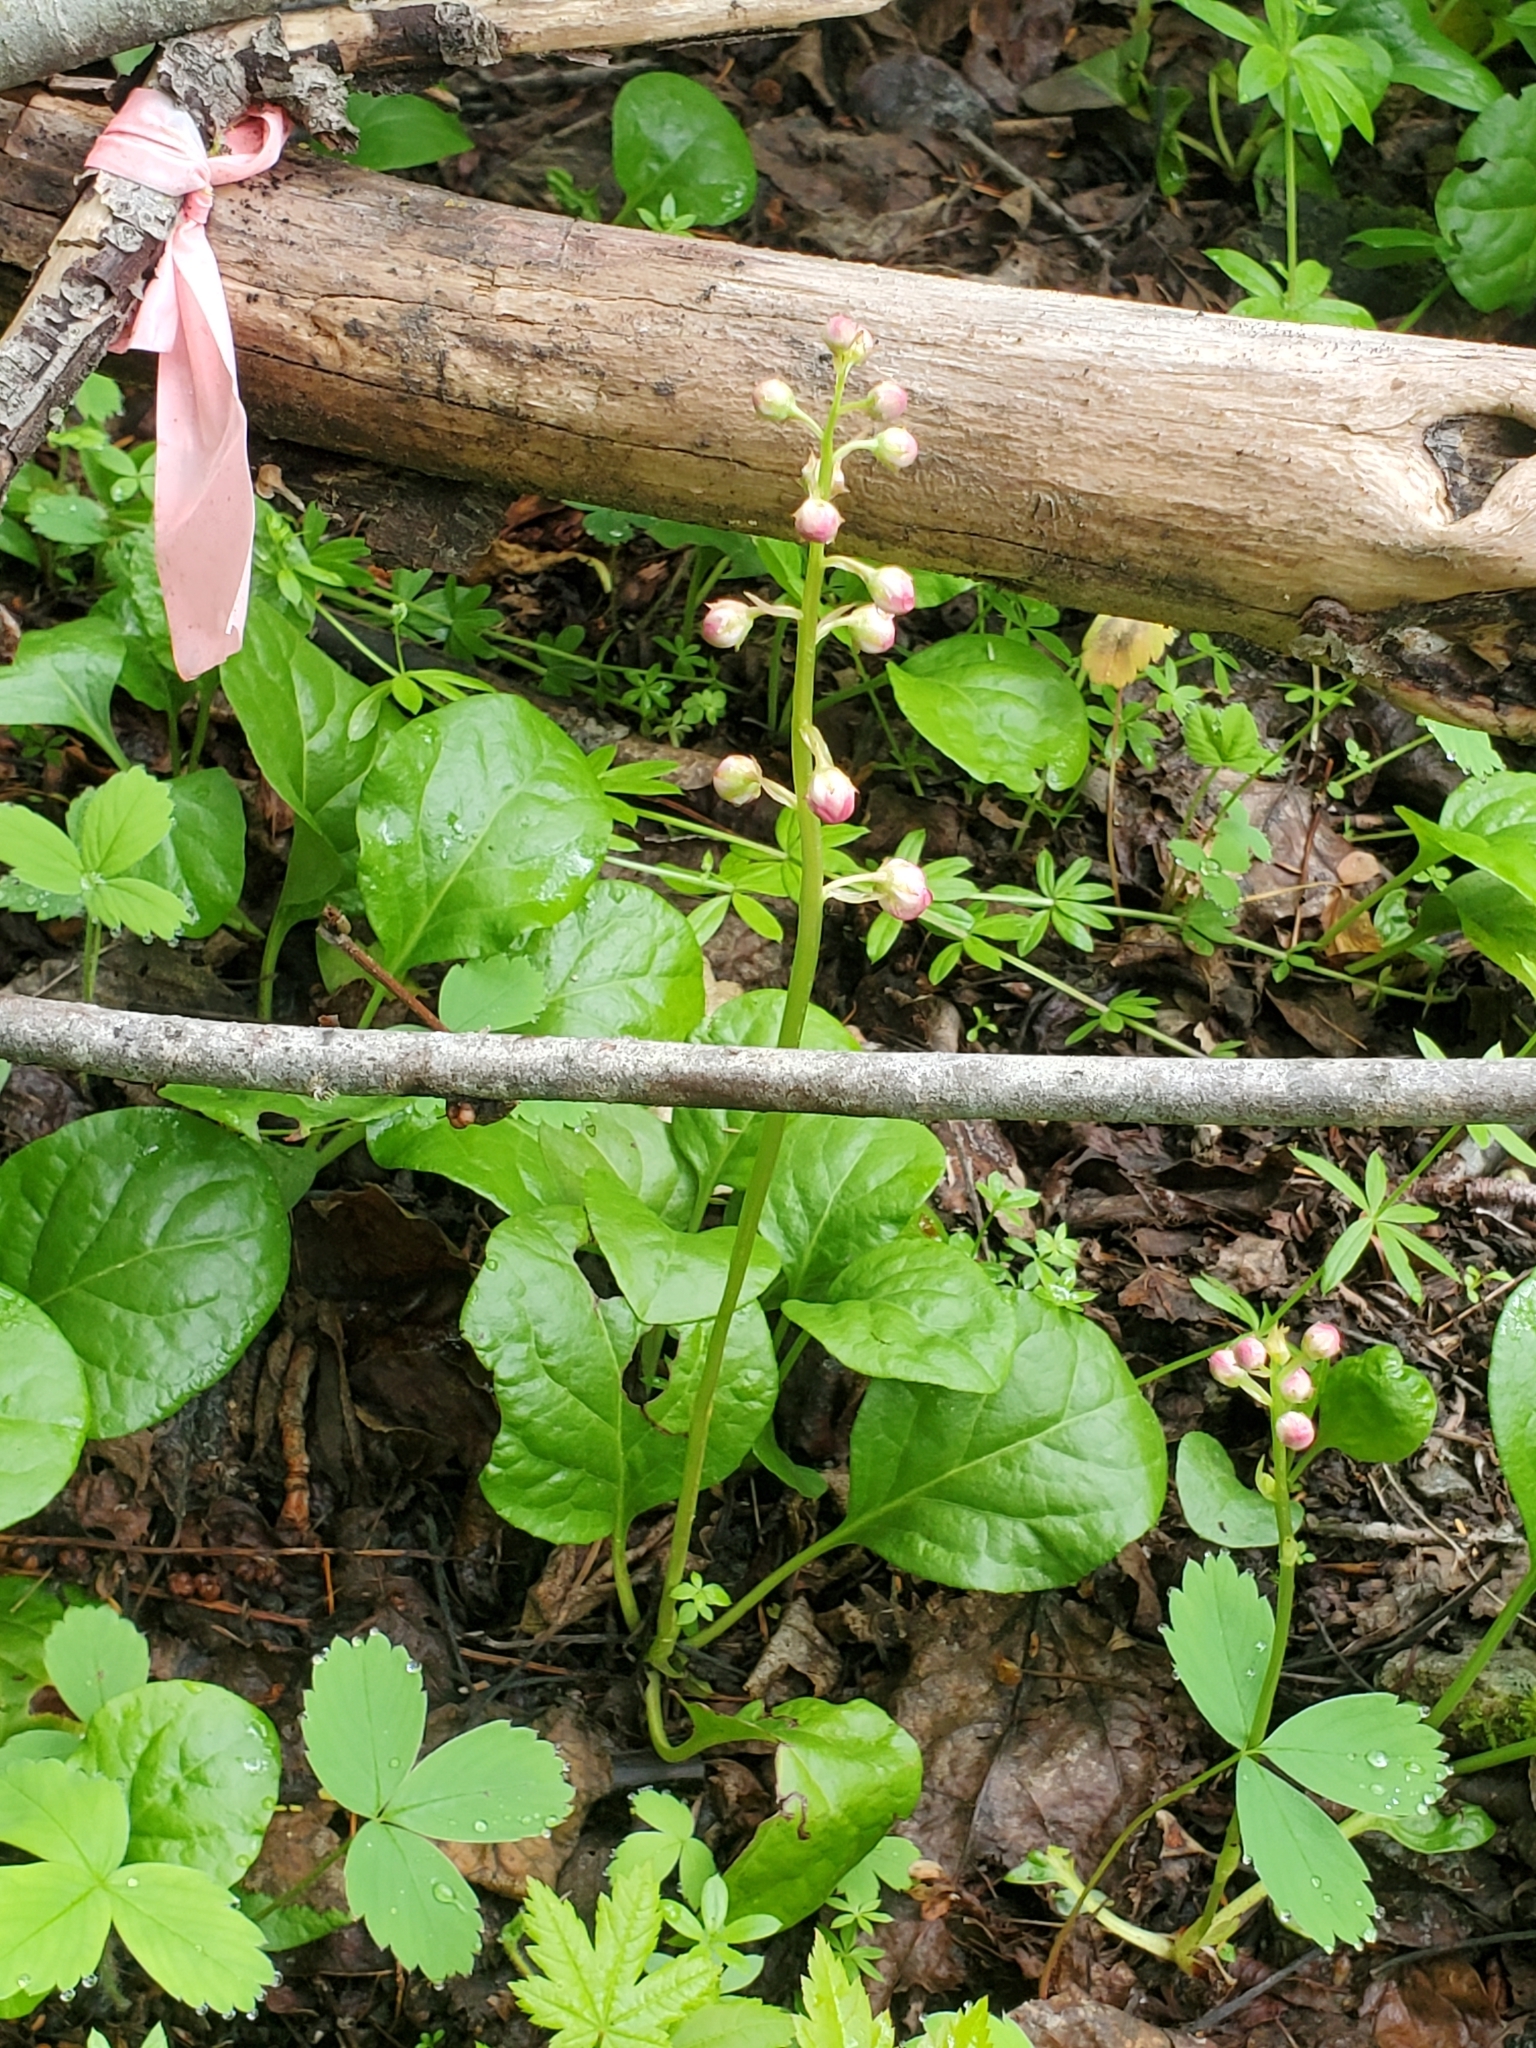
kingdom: Plantae
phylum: Tracheophyta
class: Magnoliopsida
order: Ericales
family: Ericaceae
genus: Pyrola
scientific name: Pyrola asarifolia
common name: Bog wintergreen
